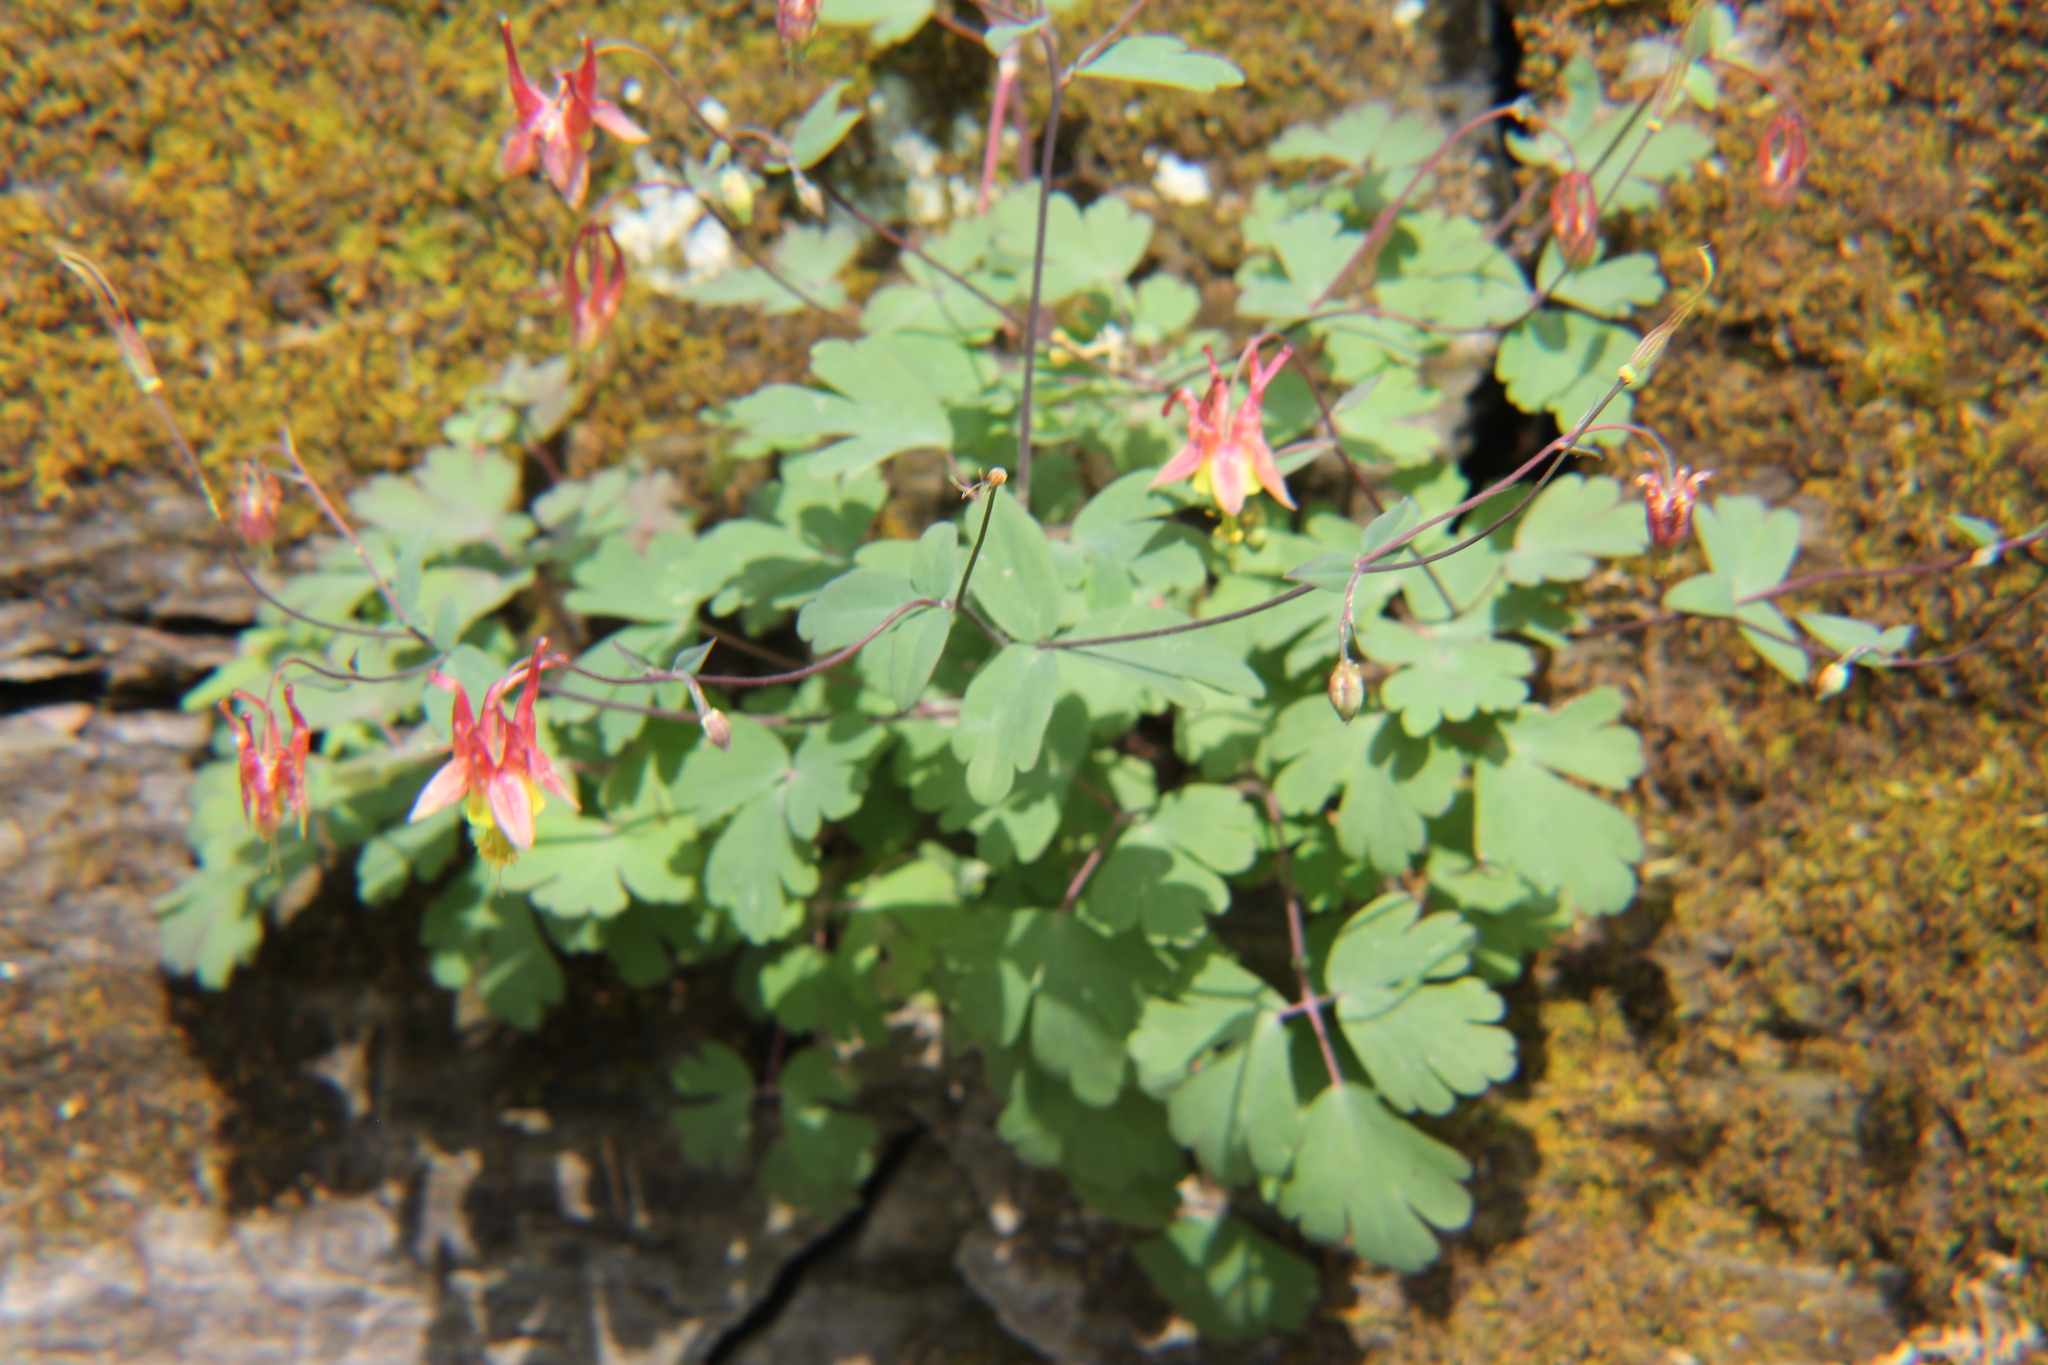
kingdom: Plantae
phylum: Tracheophyta
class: Magnoliopsida
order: Ranunculales
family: Ranunculaceae
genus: Aquilegia
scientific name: Aquilegia canadensis
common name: American columbine
